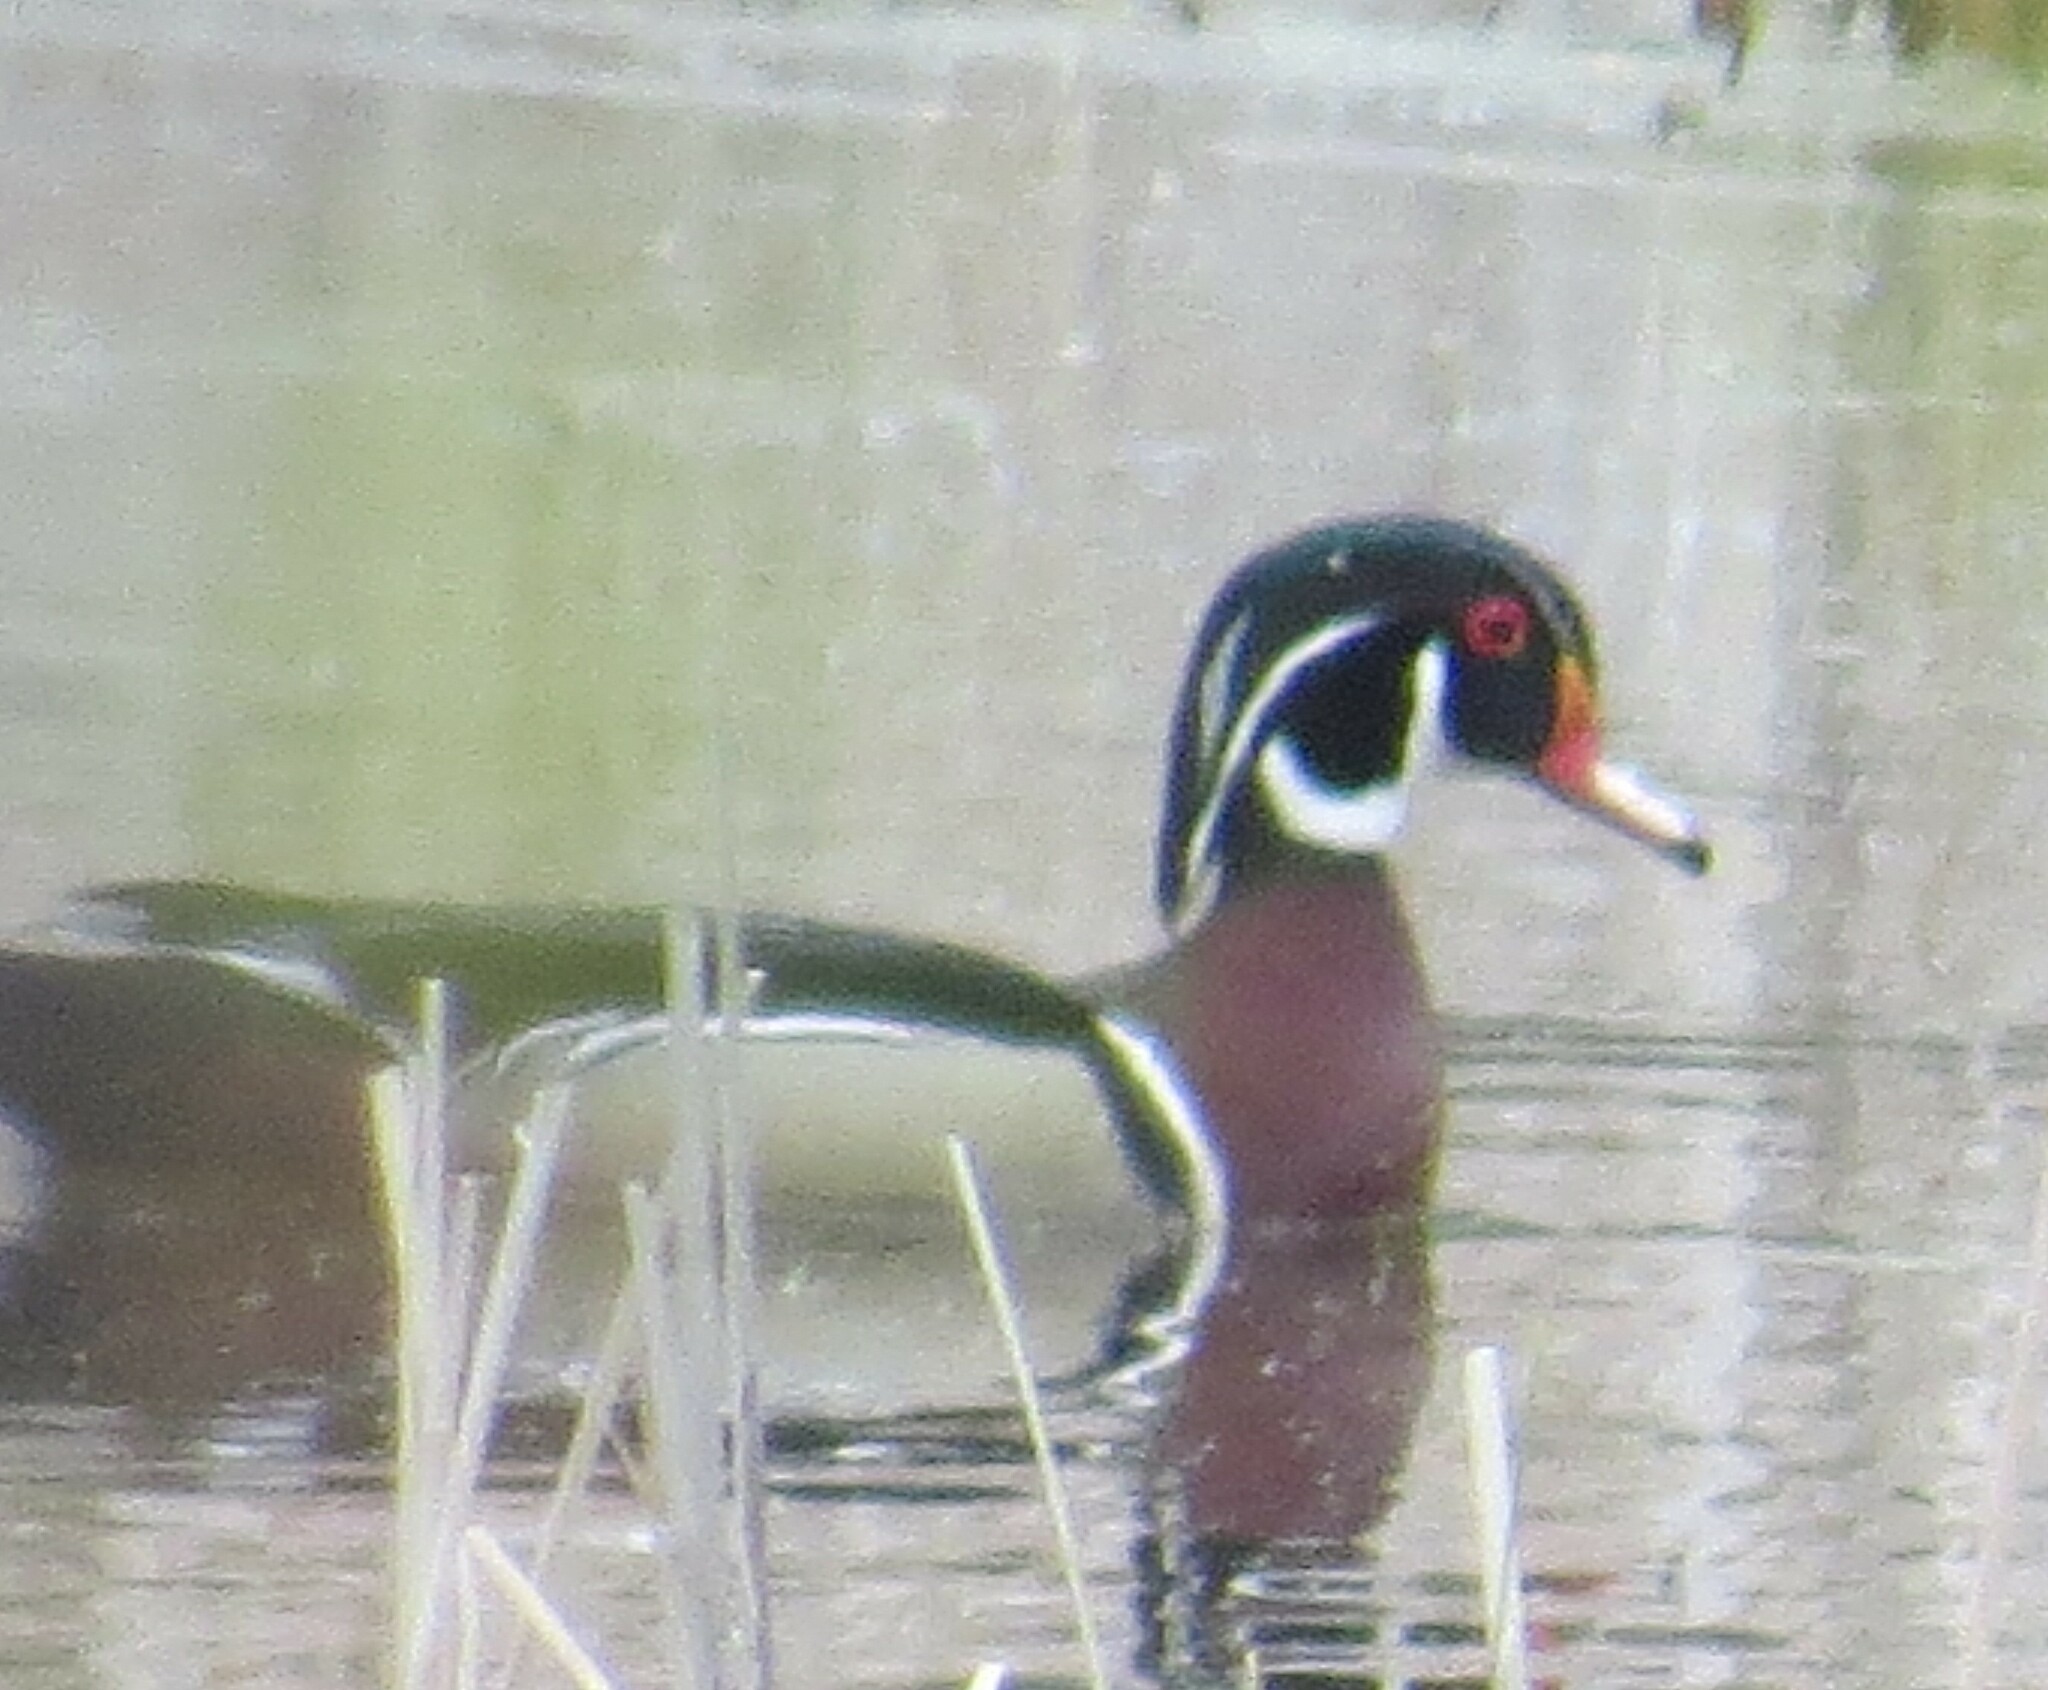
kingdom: Animalia
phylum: Chordata
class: Aves
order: Anseriformes
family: Anatidae
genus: Aix
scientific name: Aix sponsa
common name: Wood duck
